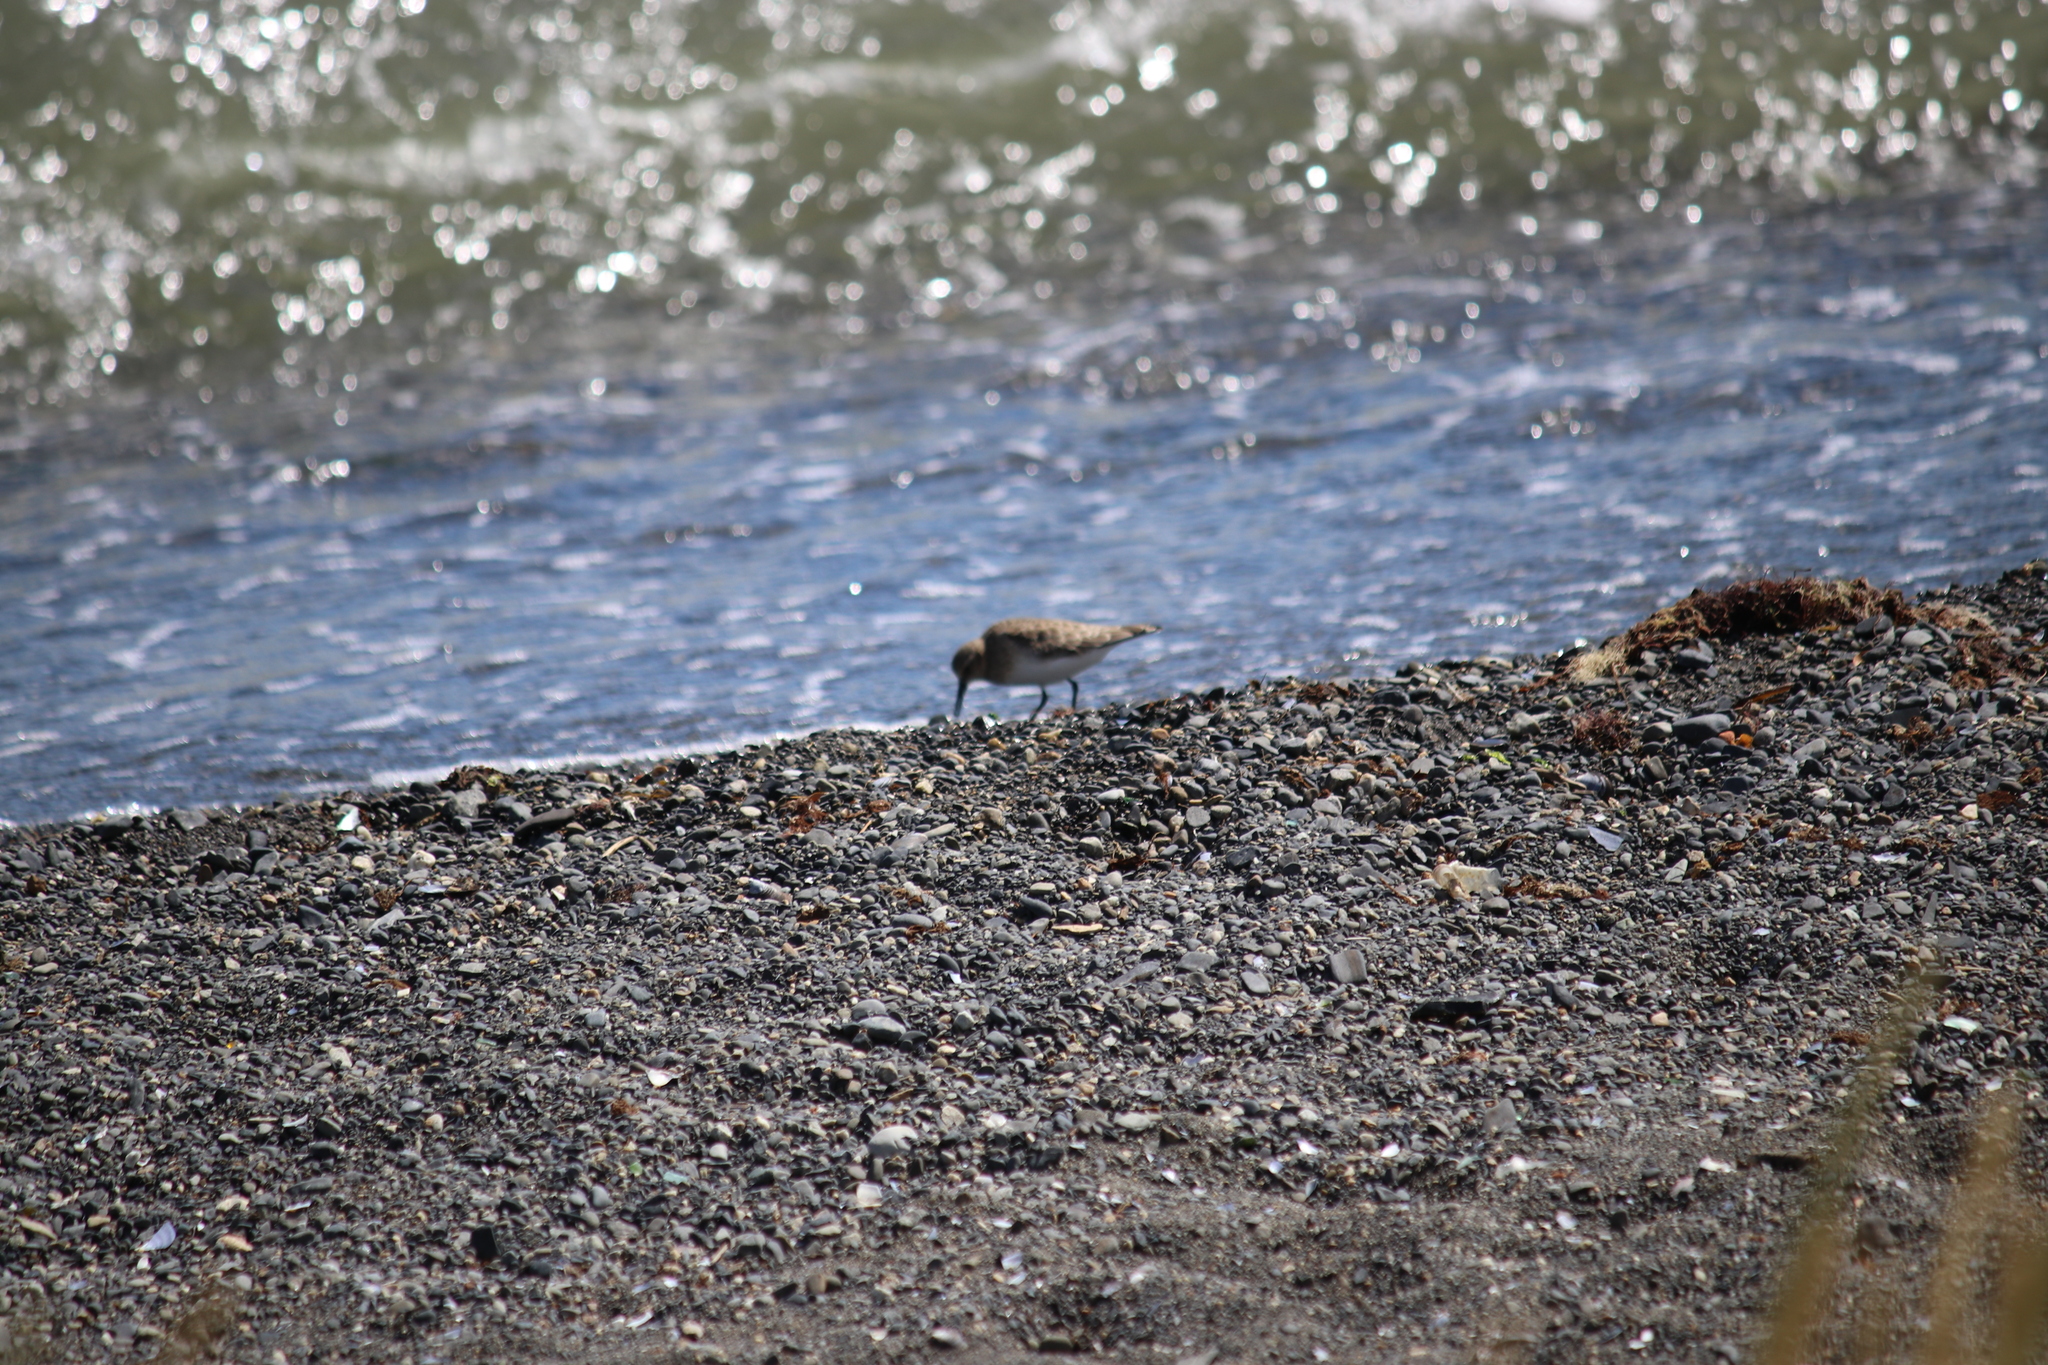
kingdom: Animalia
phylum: Chordata
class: Aves
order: Charadriiformes
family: Scolopacidae
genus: Calidris
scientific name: Calidris bairdii
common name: Baird's sandpiper
